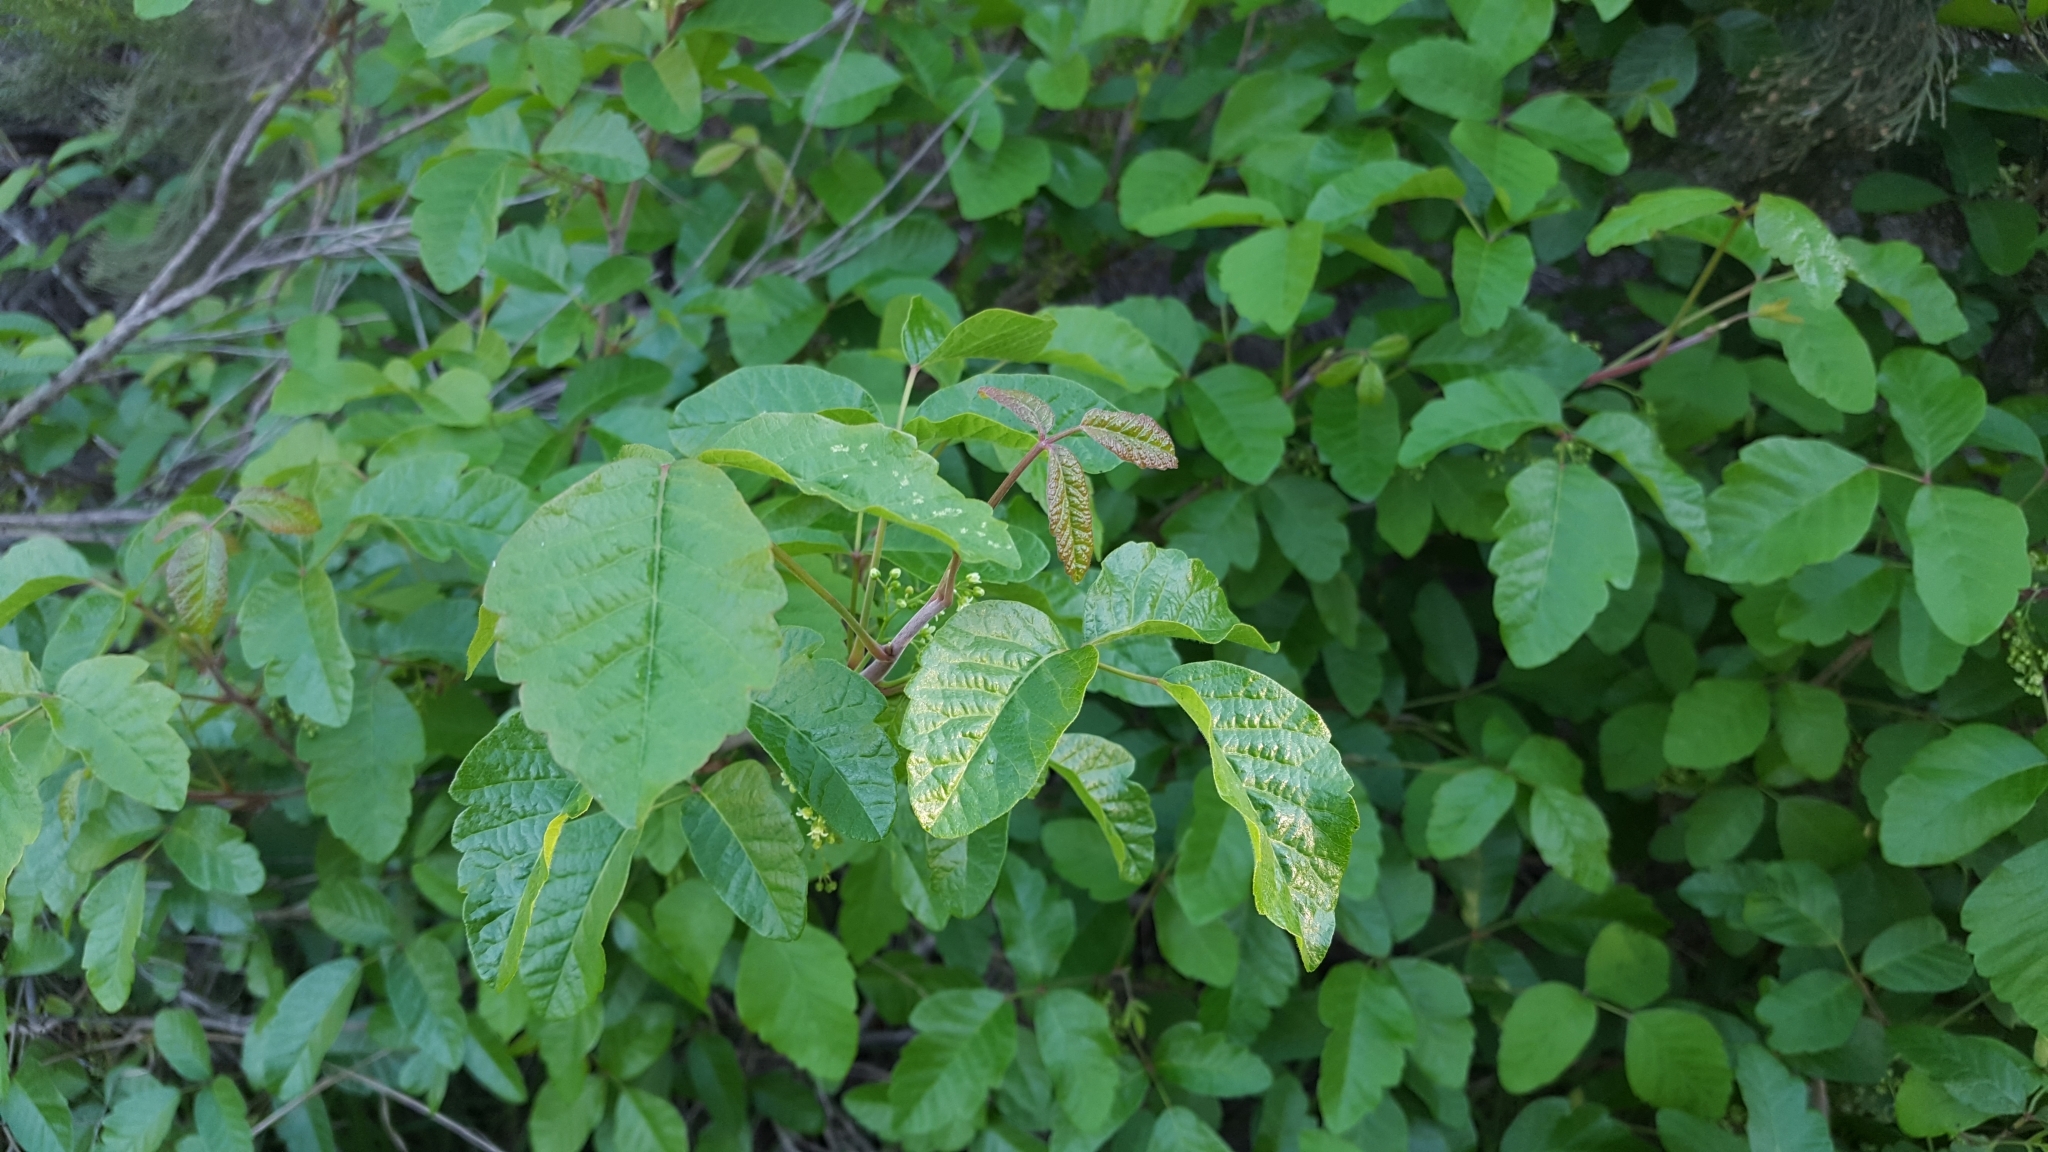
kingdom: Plantae
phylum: Tracheophyta
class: Magnoliopsida
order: Sapindales
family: Anacardiaceae
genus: Toxicodendron
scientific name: Toxicodendron diversilobum
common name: Pacific poison-oak
